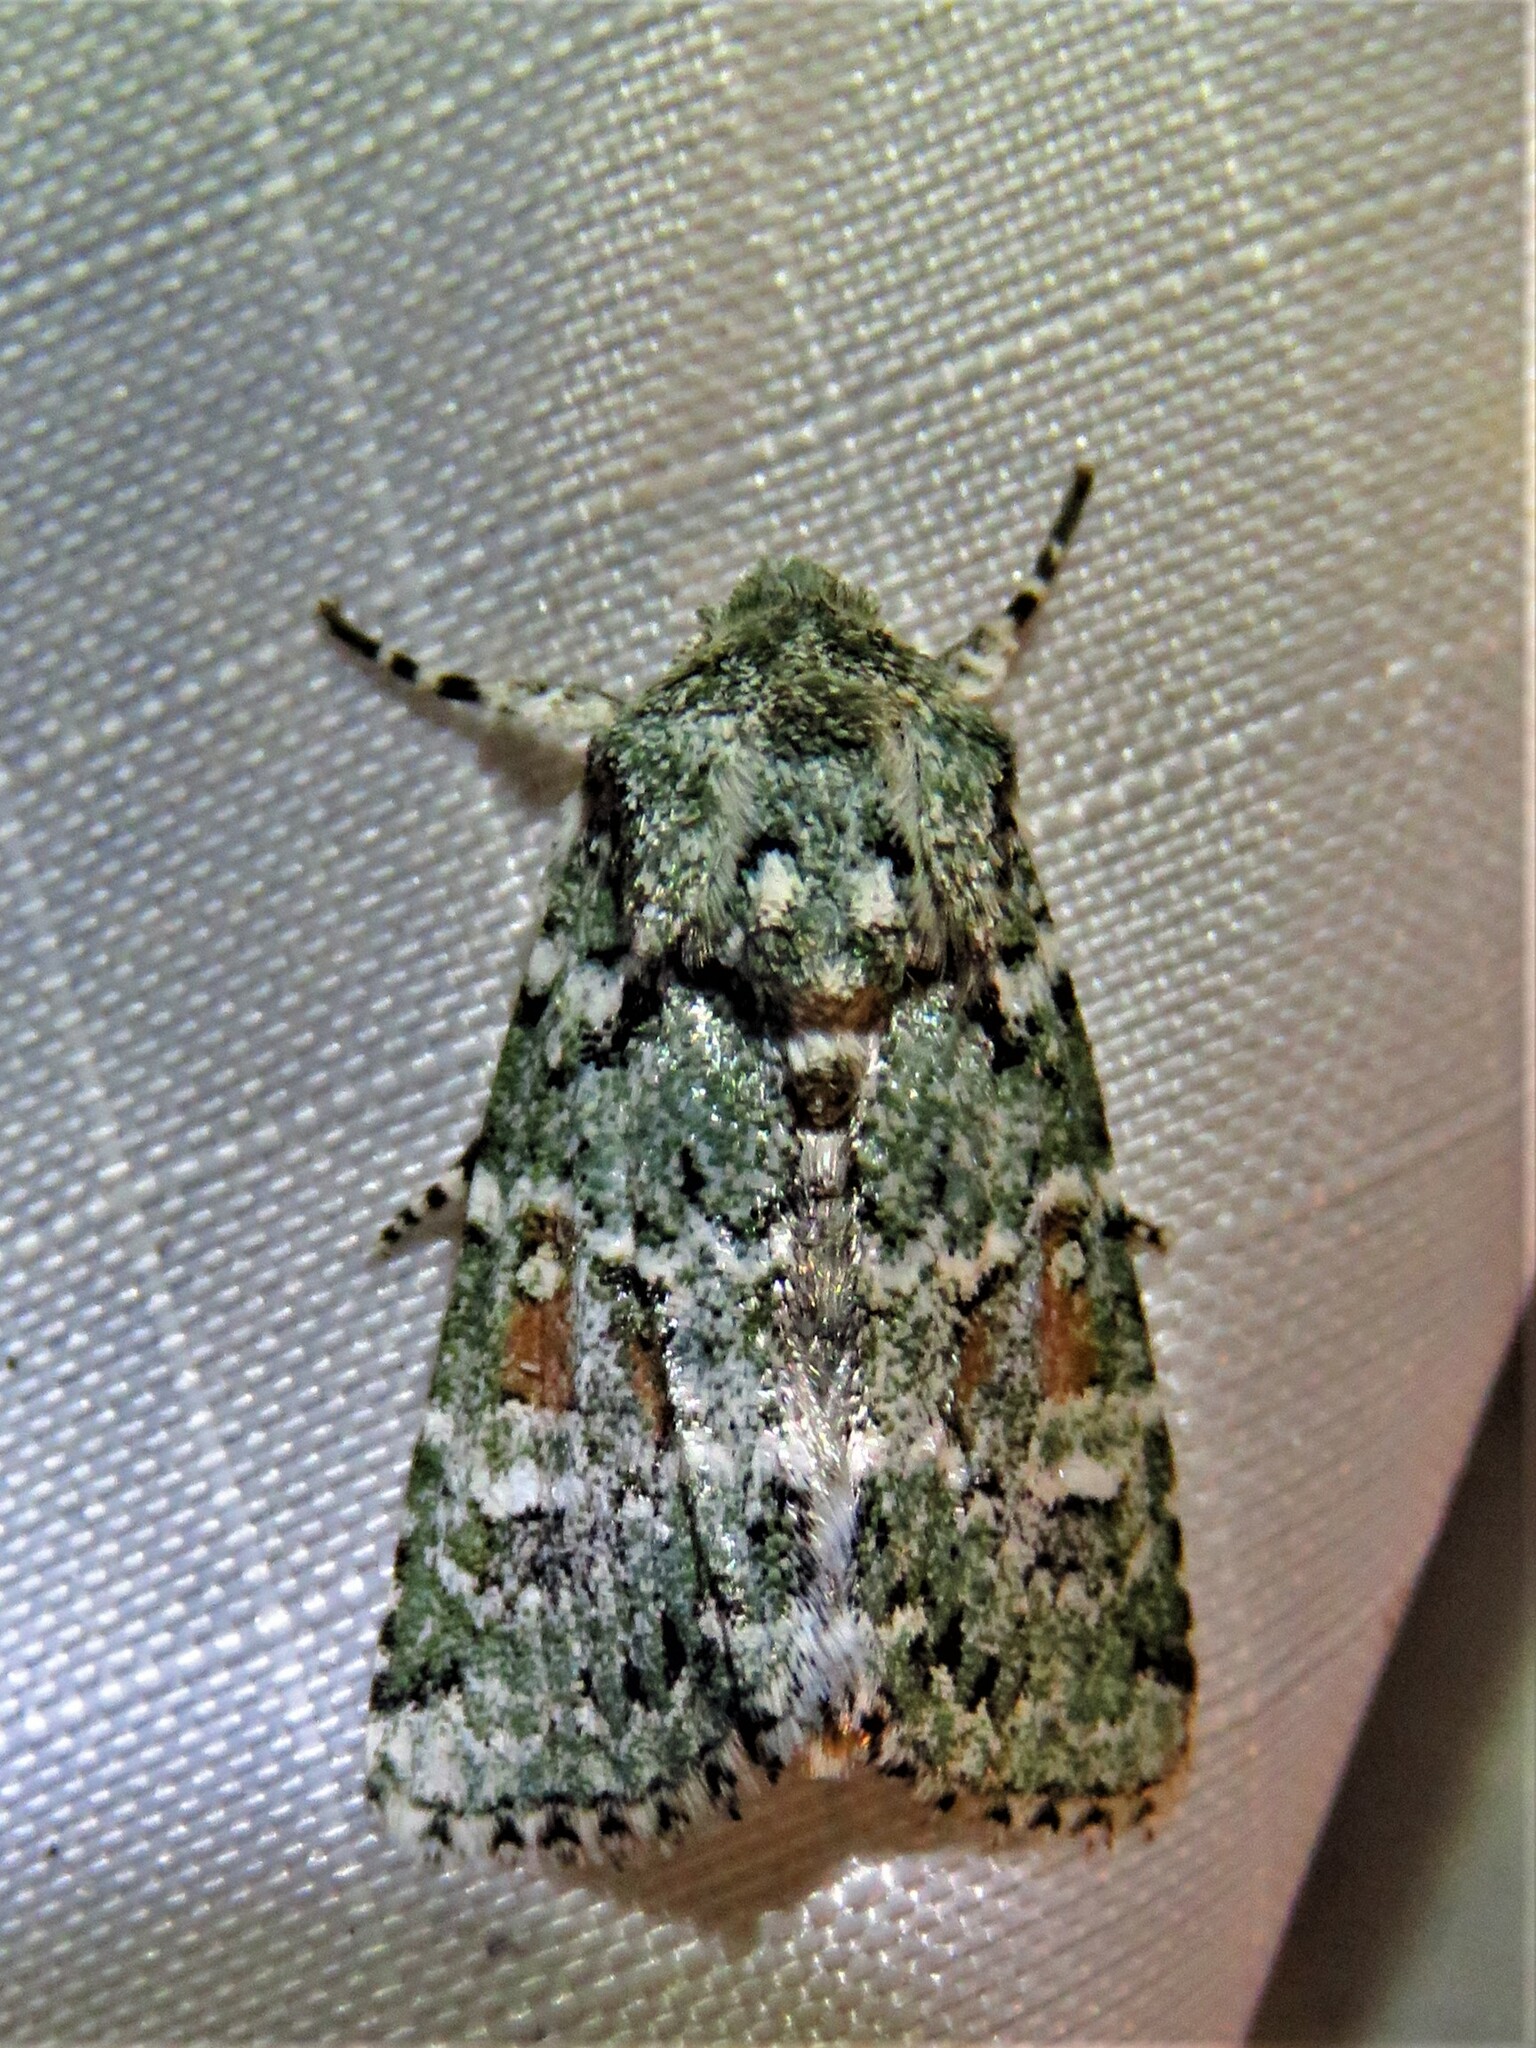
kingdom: Animalia
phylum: Arthropoda
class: Insecta
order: Lepidoptera
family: Noctuidae
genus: Lacinipolia
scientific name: Lacinipolia laudabilis
